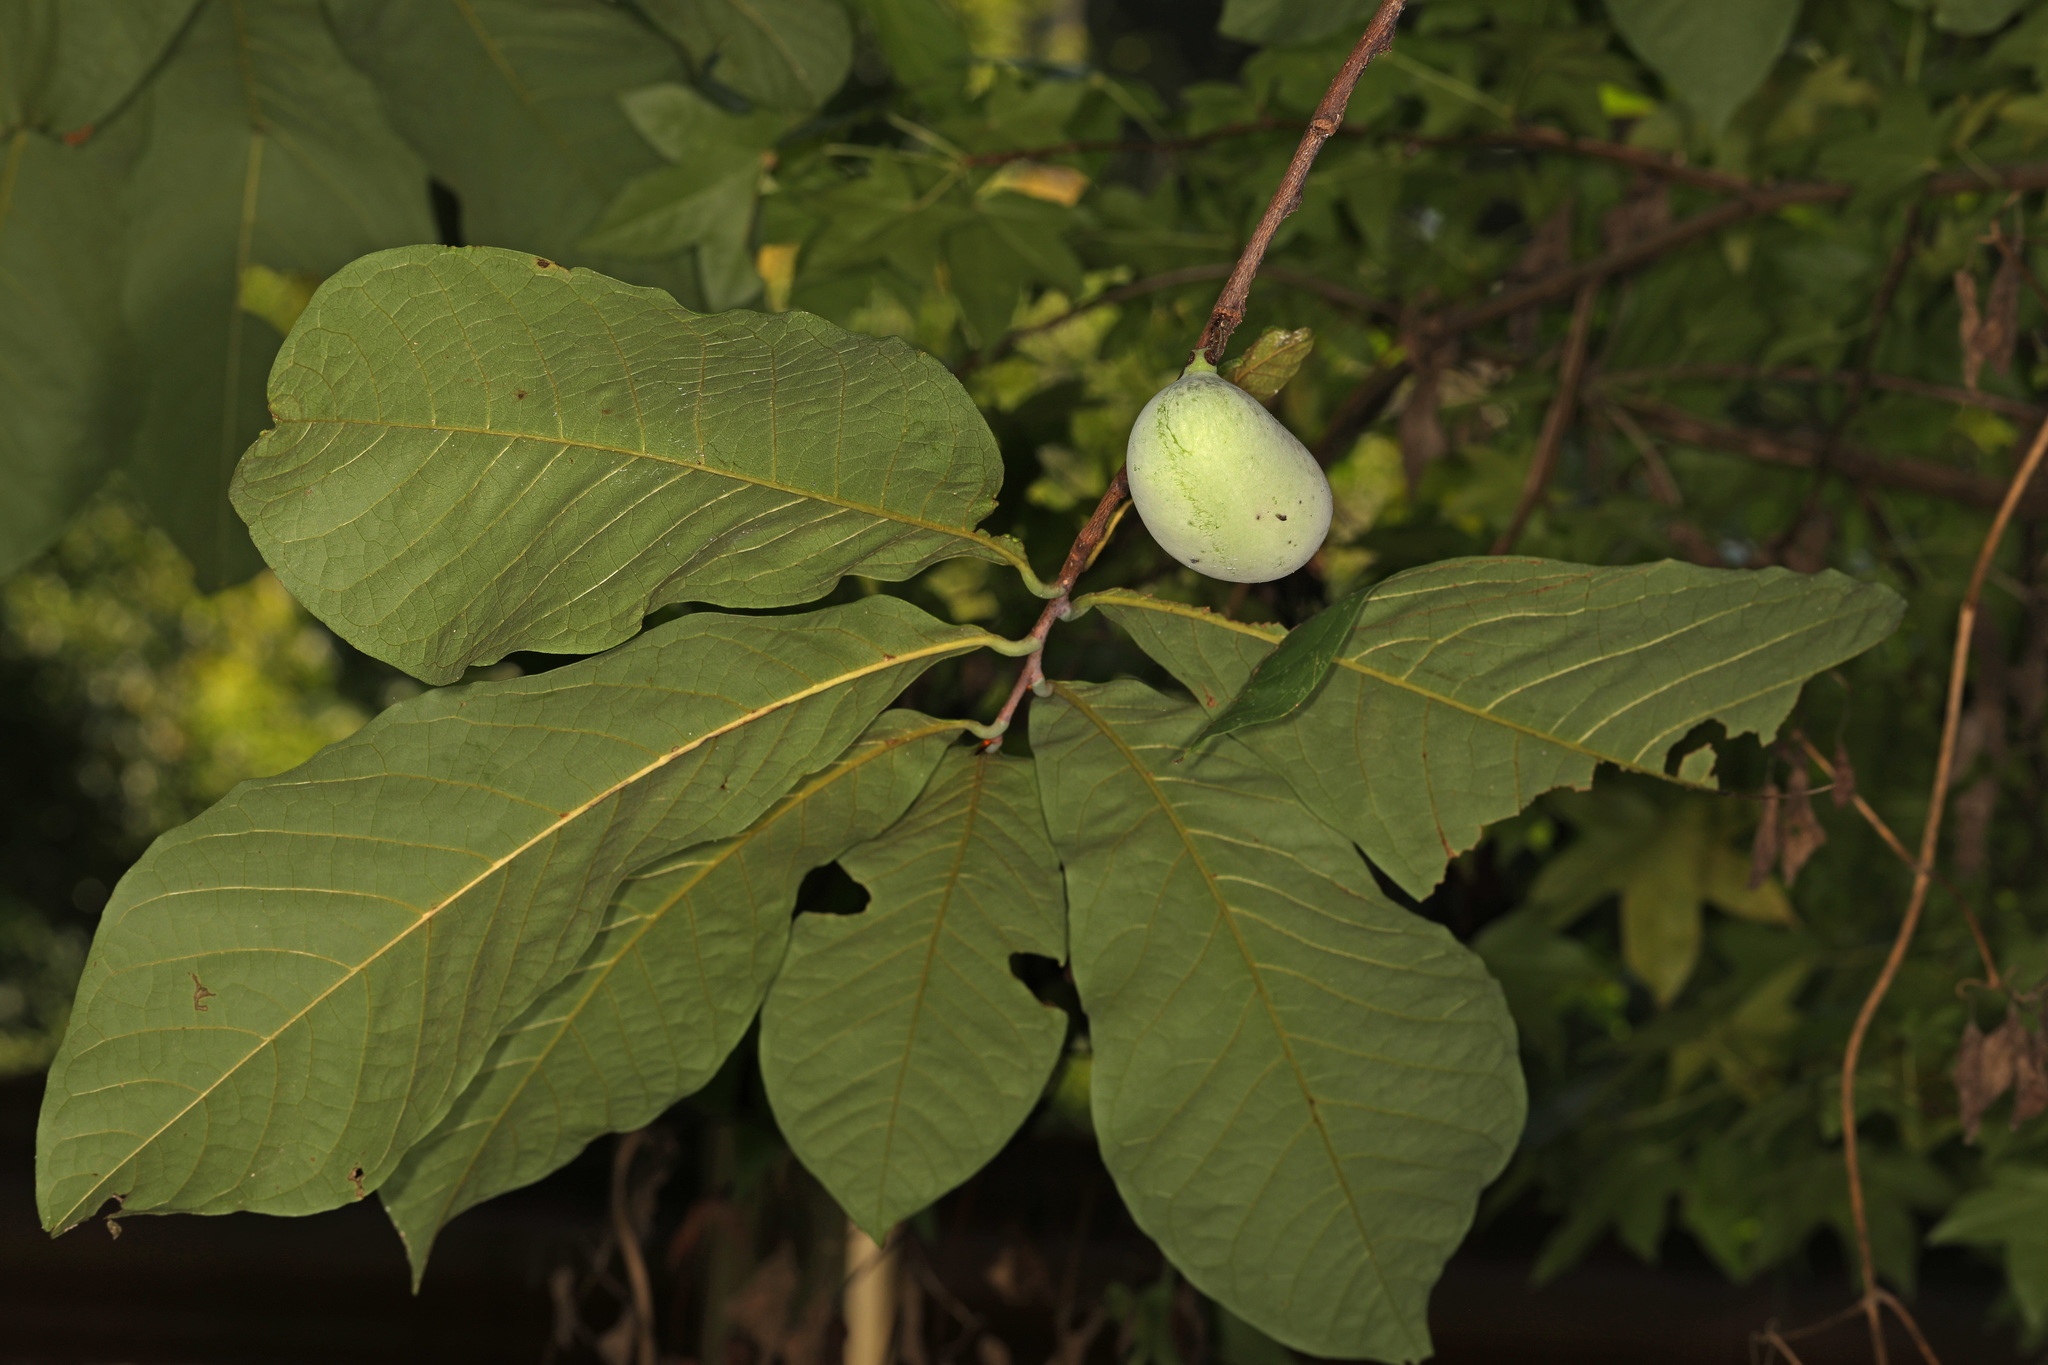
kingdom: Plantae
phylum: Tracheophyta
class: Magnoliopsida
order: Magnoliales
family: Annonaceae
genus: Asimina
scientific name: Asimina triloba
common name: Dog-banana
